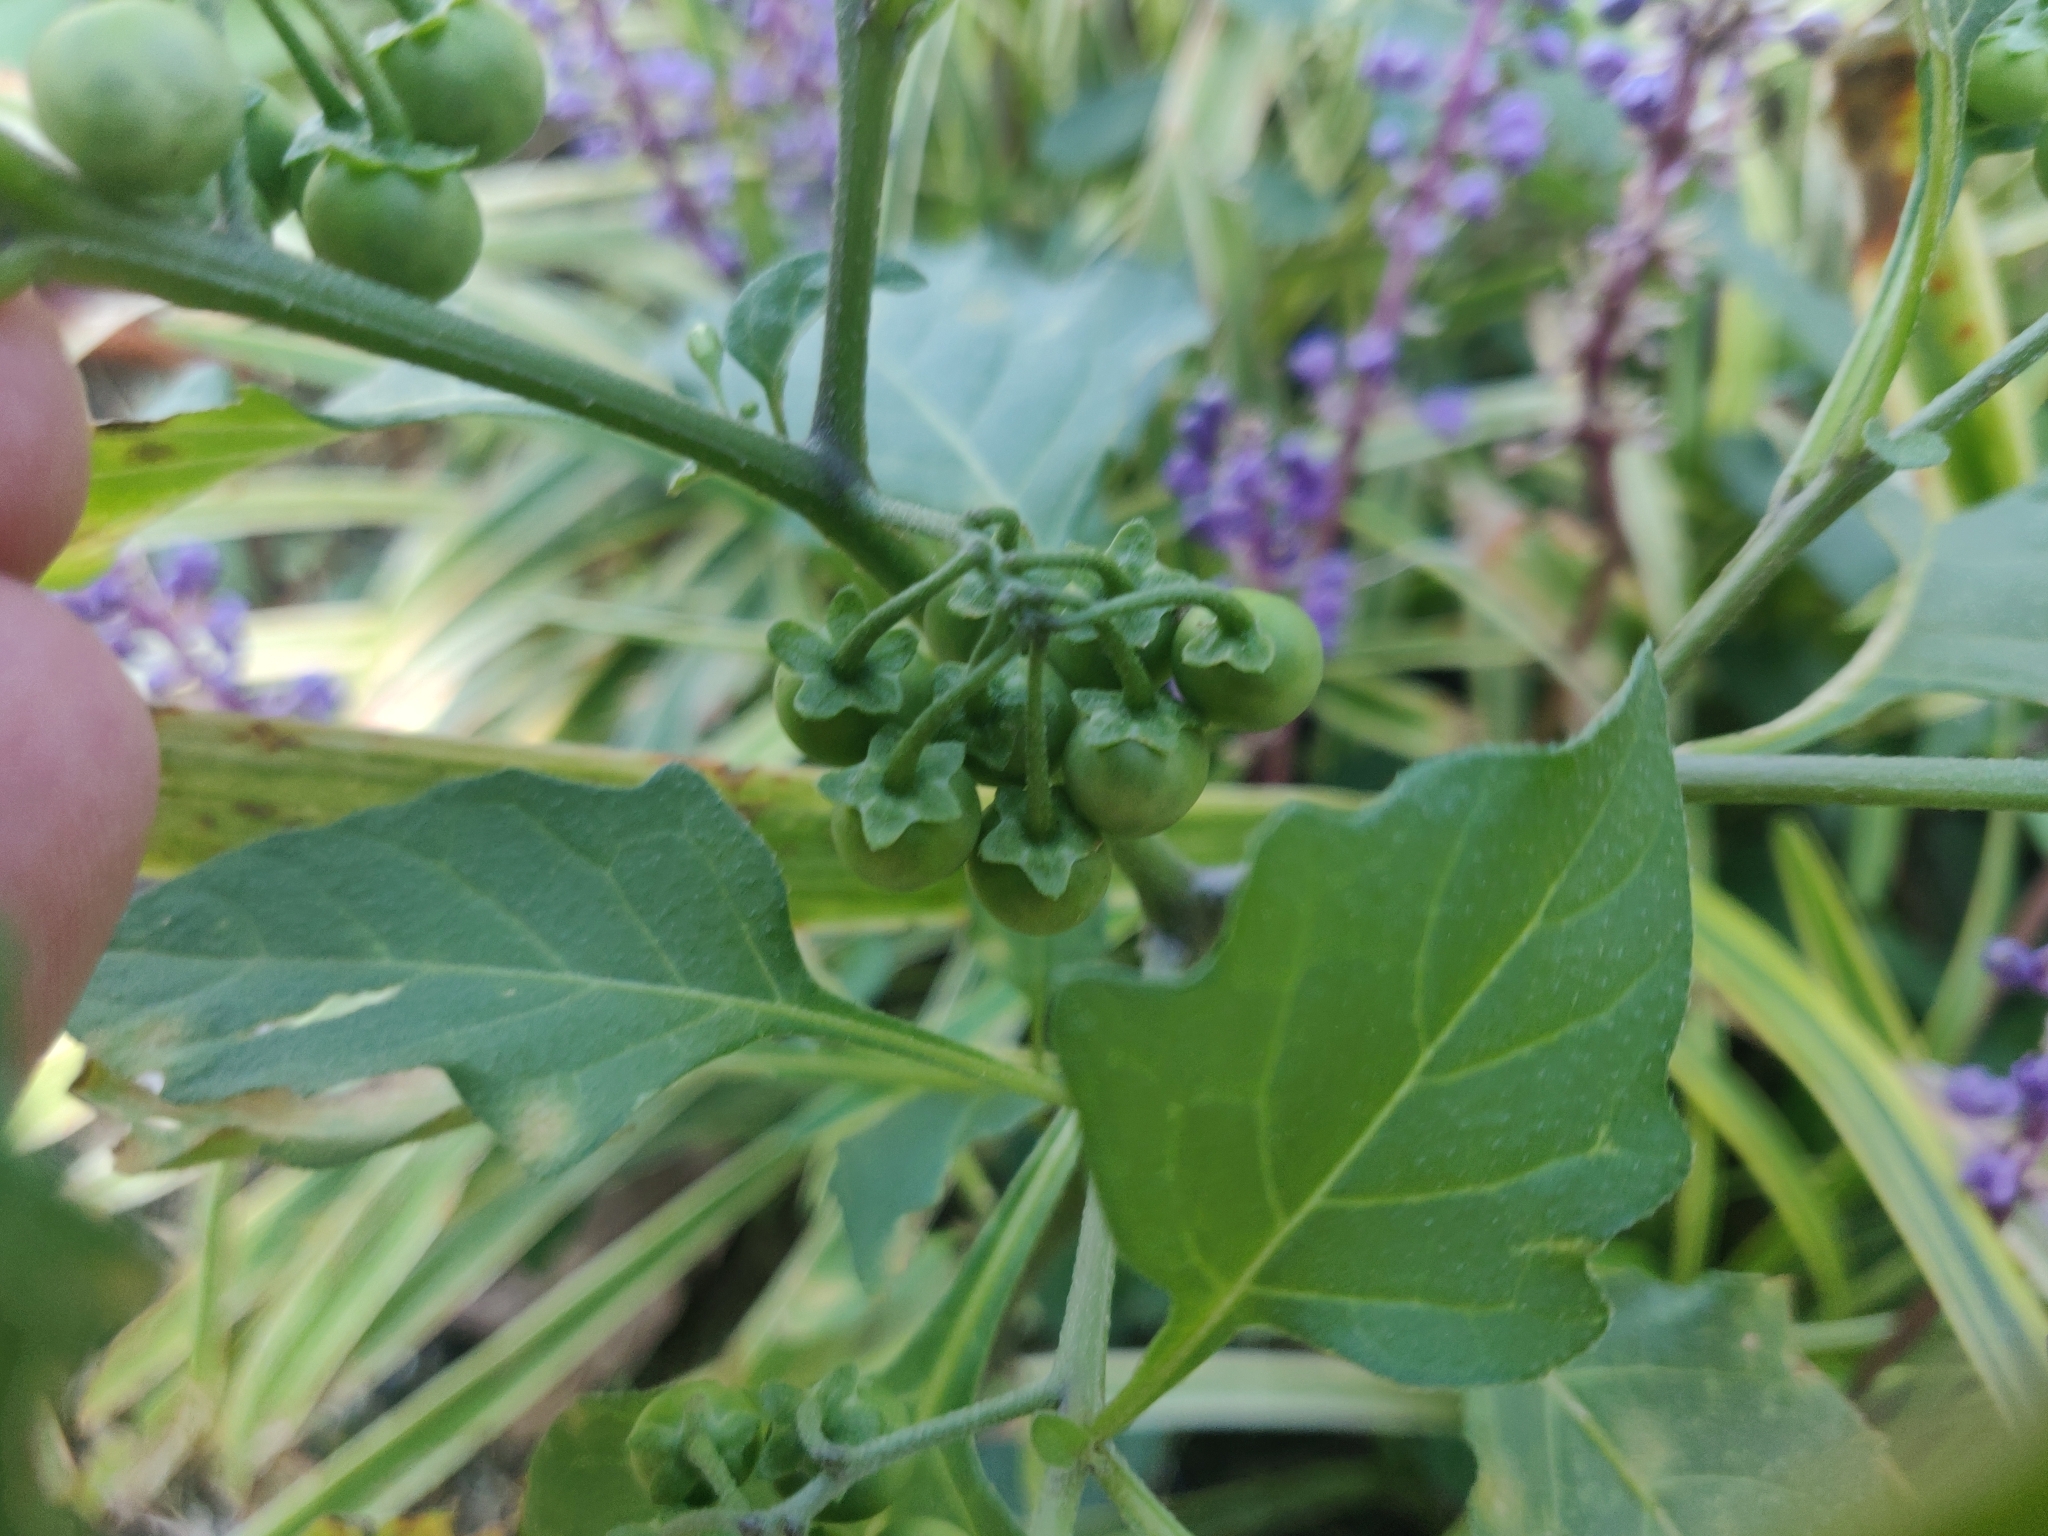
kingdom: Plantae
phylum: Tracheophyta
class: Magnoliopsida
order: Solanales
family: Solanaceae
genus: Solanum
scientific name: Solanum nigrum
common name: Black nightshade
